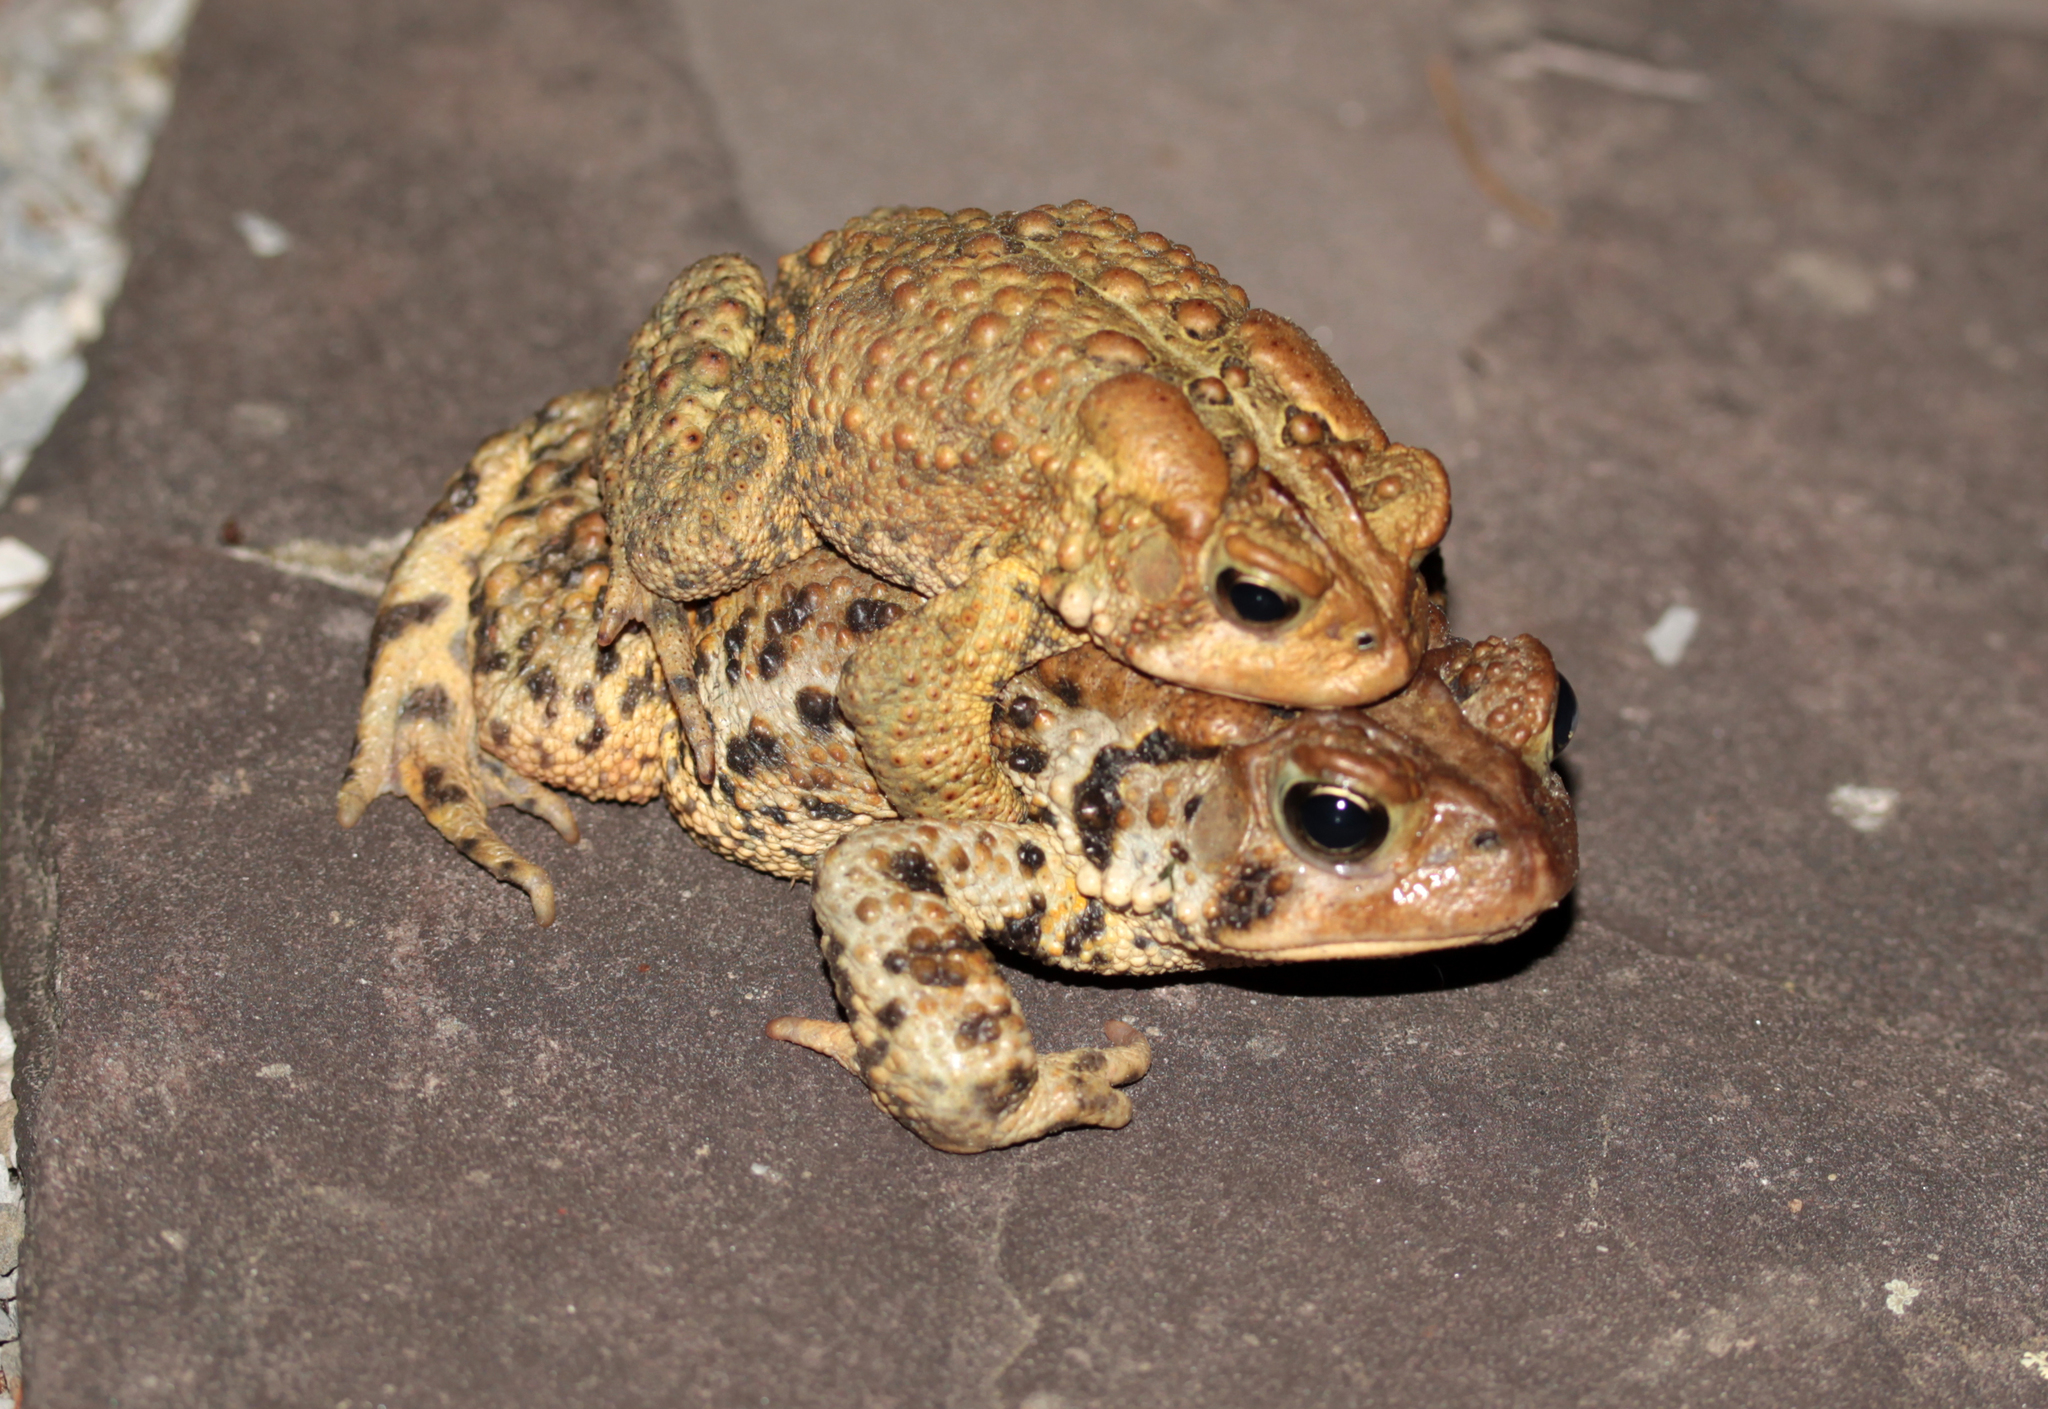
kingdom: Animalia
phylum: Chordata
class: Amphibia
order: Anura
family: Bufonidae
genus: Anaxyrus
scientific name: Anaxyrus americanus
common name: American toad
